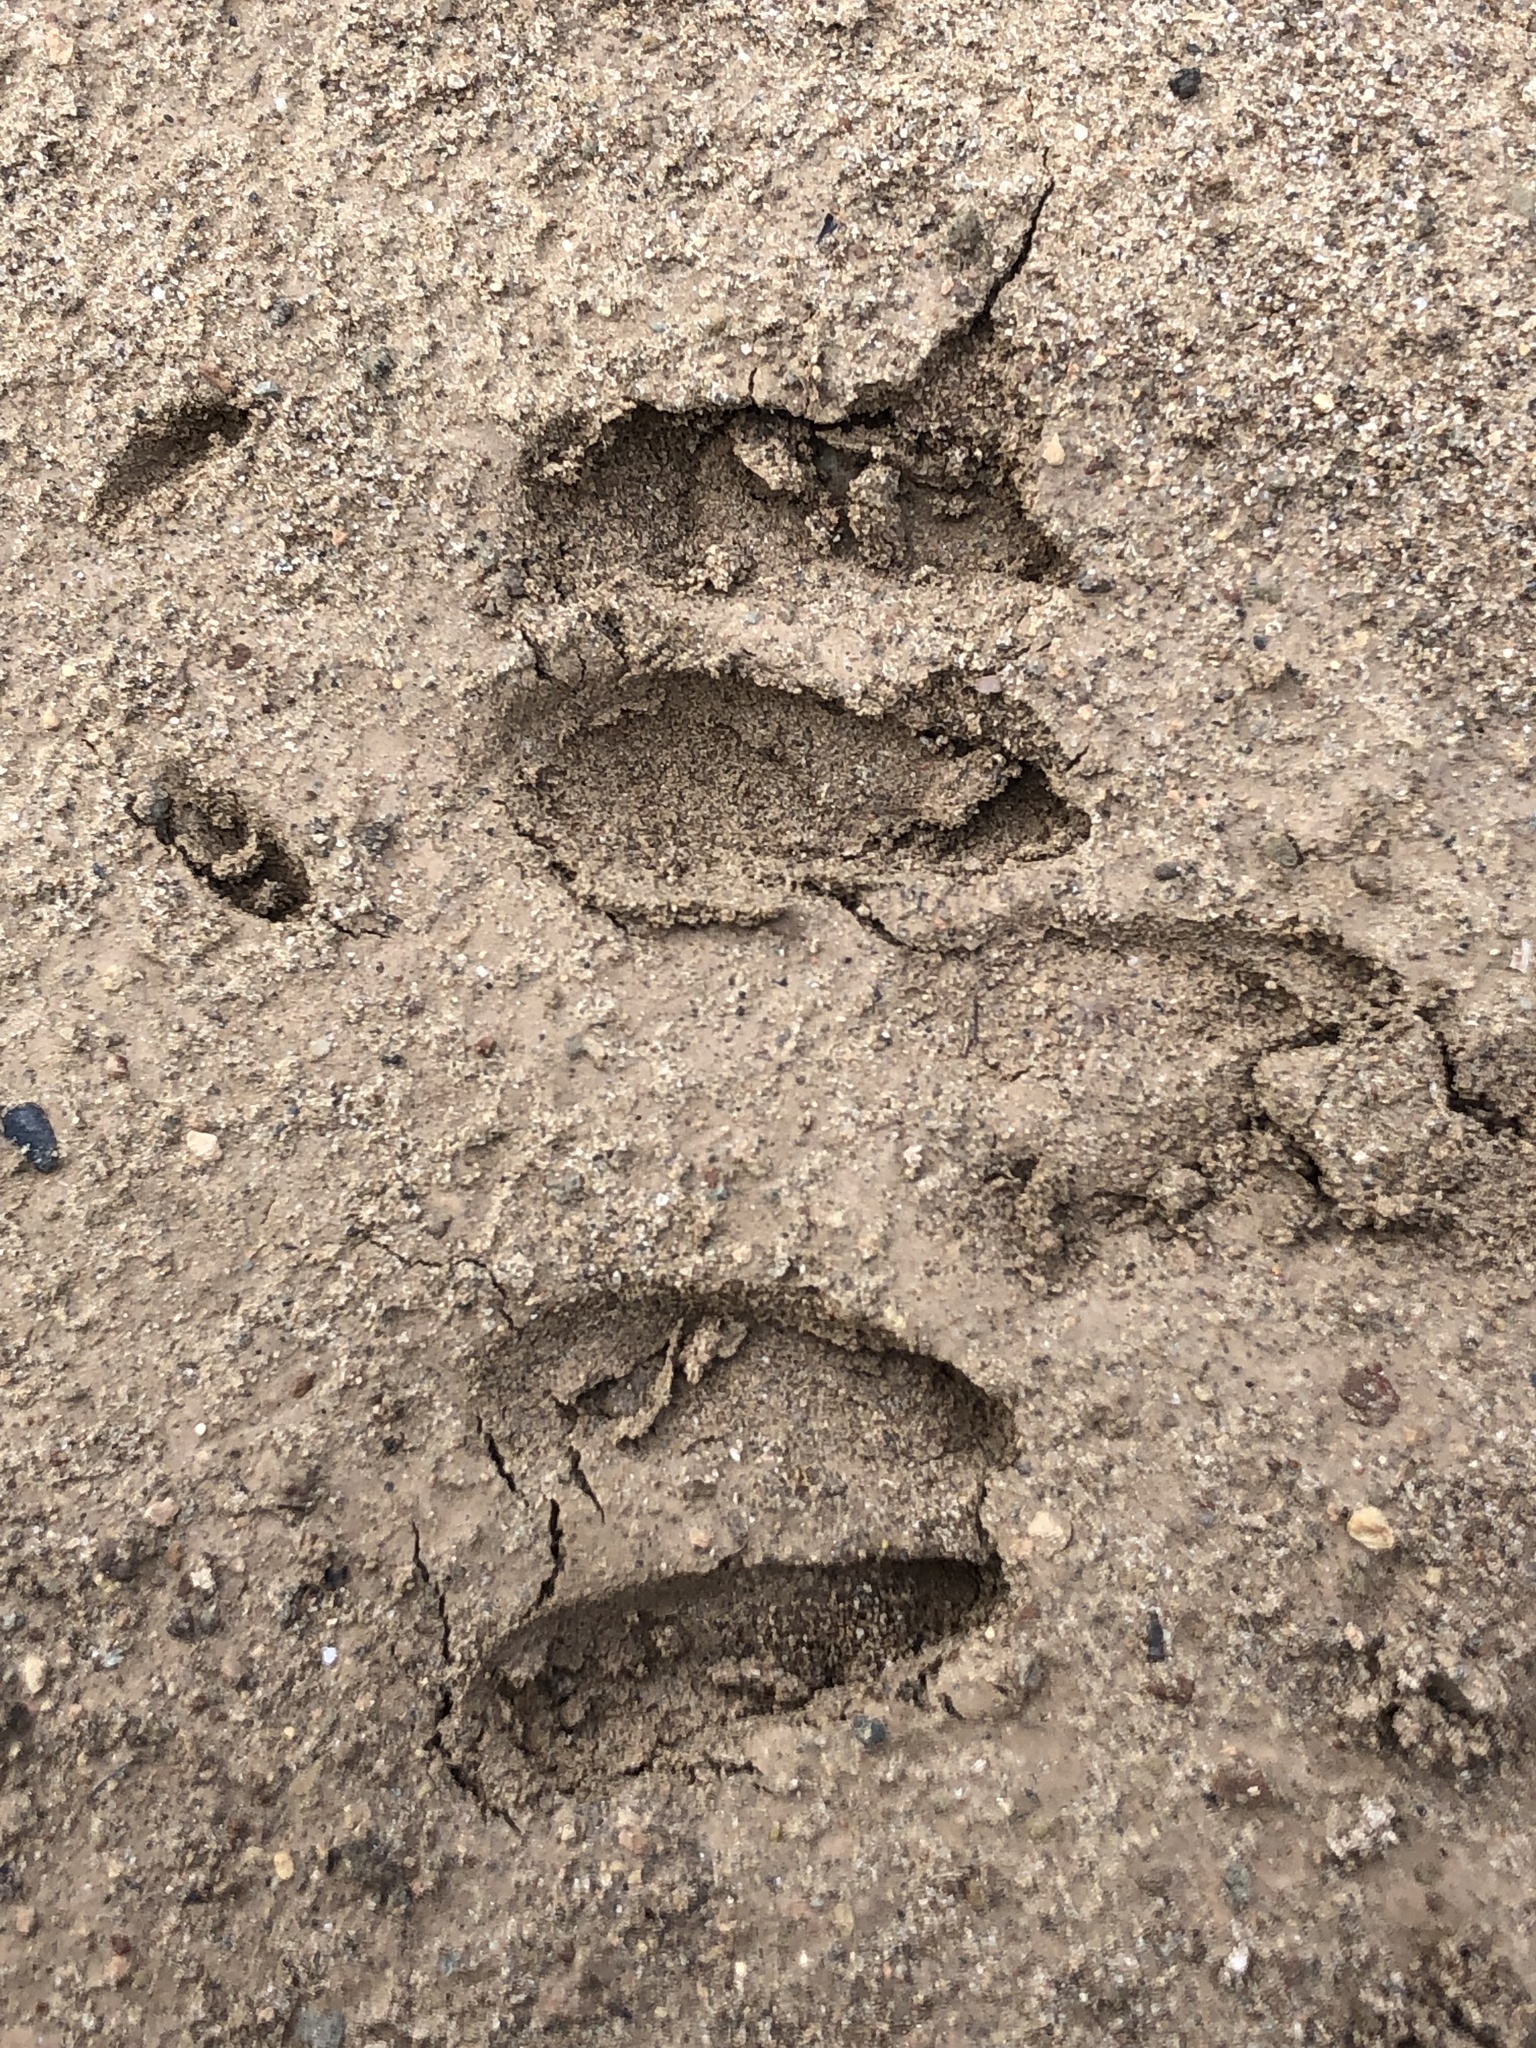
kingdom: Animalia
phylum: Chordata
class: Mammalia
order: Artiodactyla
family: Cervidae
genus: Capreolus
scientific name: Capreolus capreolus
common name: Western roe deer
